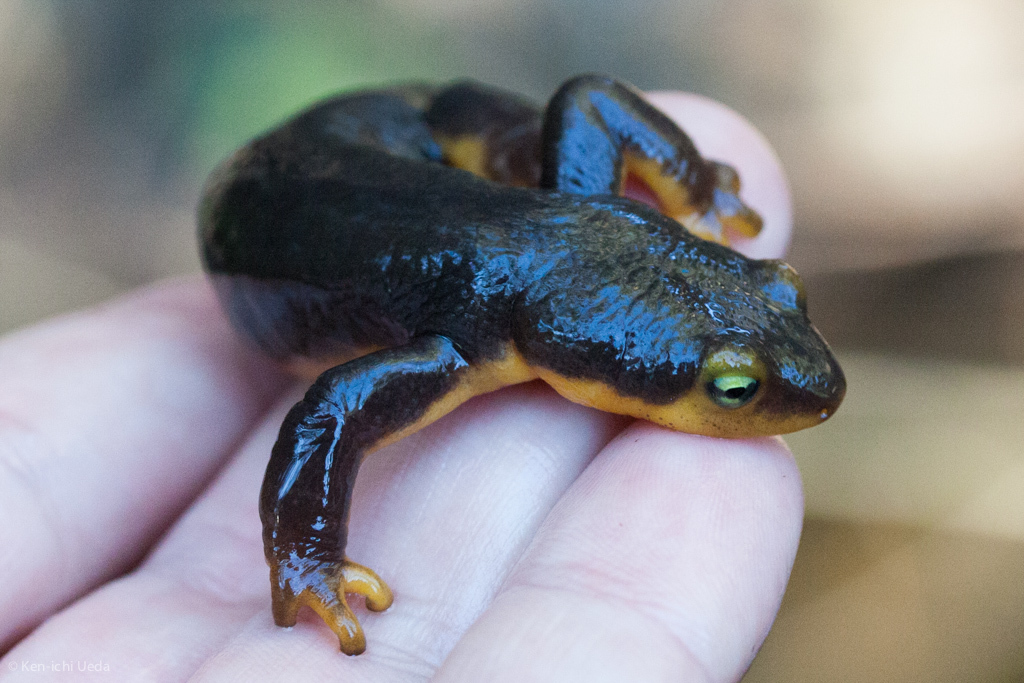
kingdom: Animalia
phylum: Chordata
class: Amphibia
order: Caudata
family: Salamandridae
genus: Taricha
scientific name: Taricha torosa
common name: California newt
